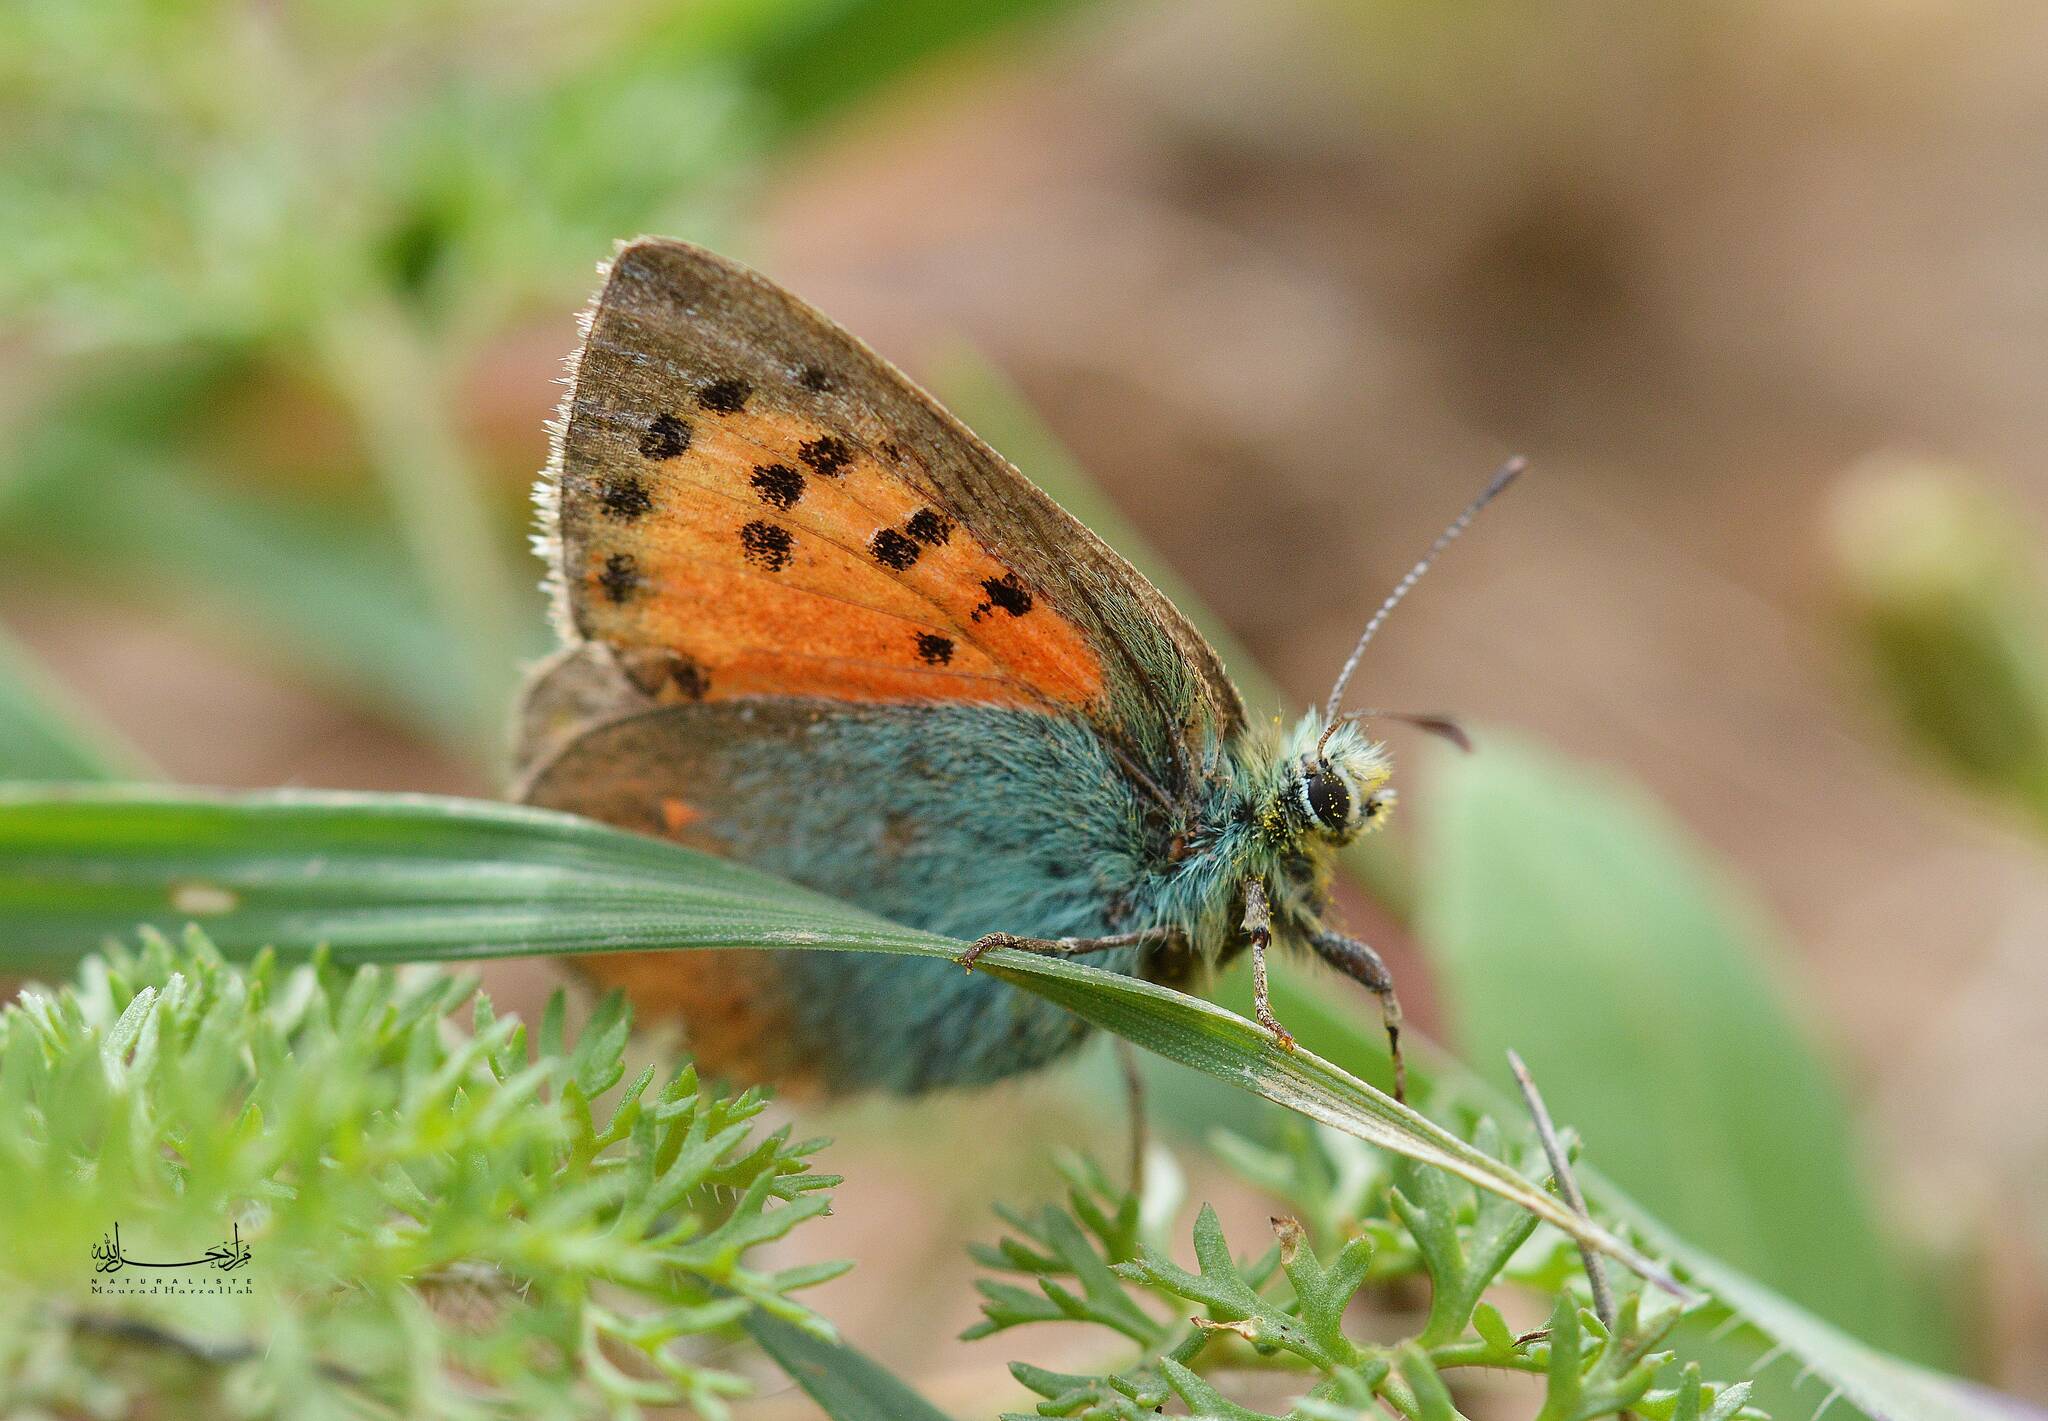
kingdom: Animalia
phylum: Arthropoda
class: Insecta
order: Lepidoptera
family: Lycaenidae
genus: Tomares
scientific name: Tomares ballus
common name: Provence hairstreak
